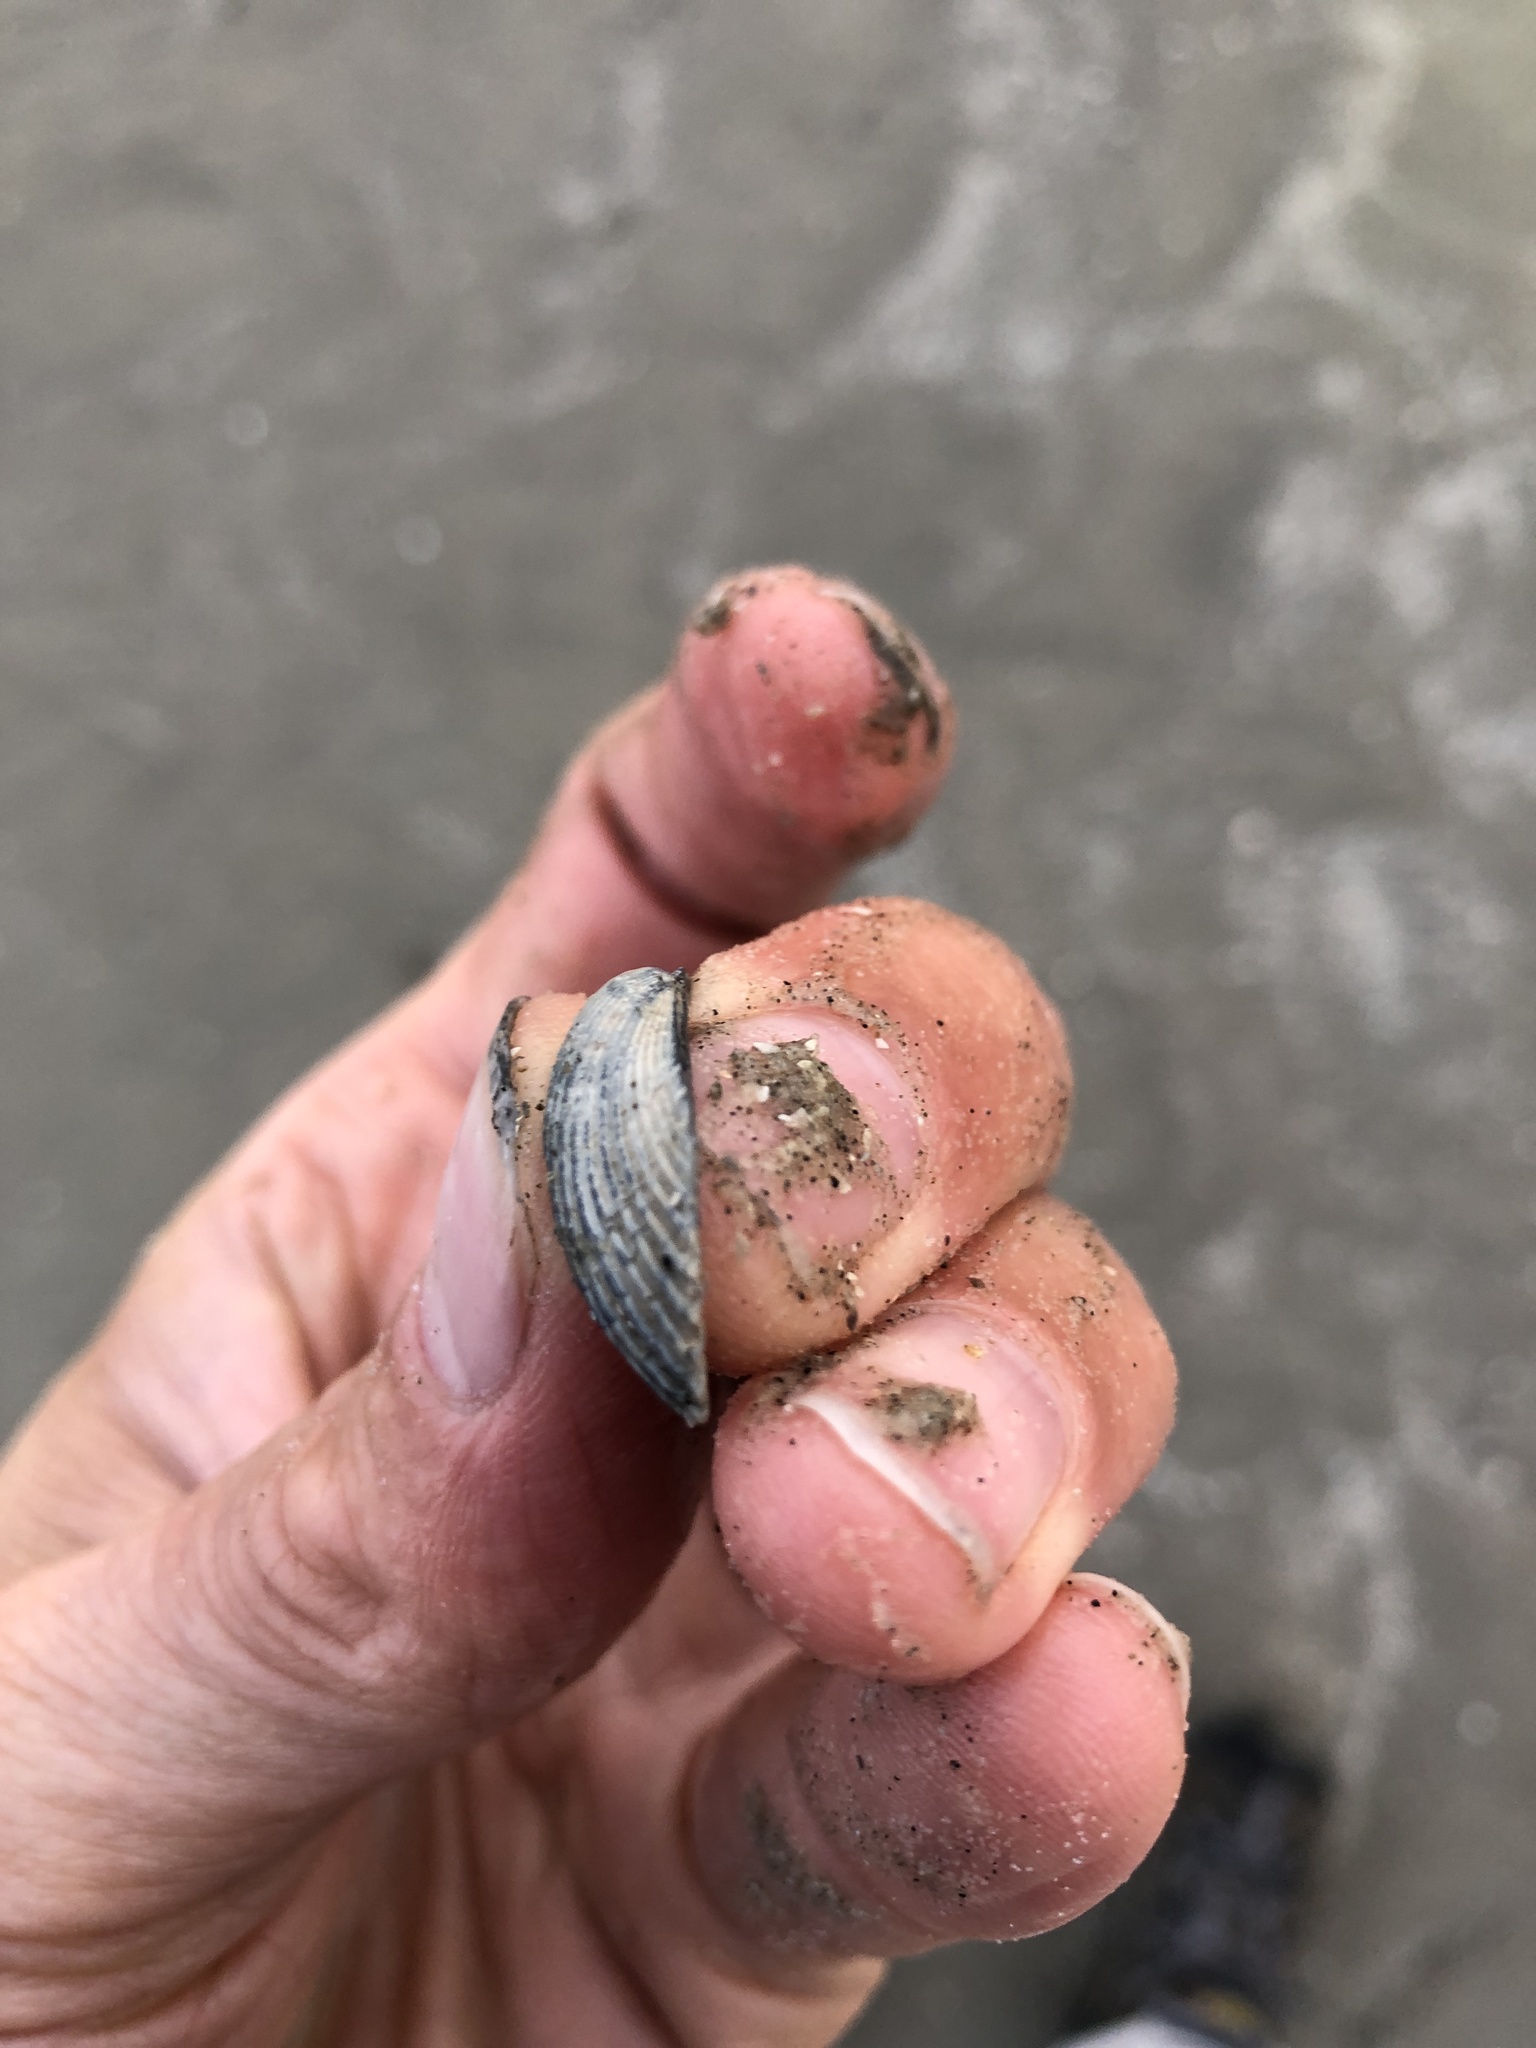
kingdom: Animalia
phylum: Mollusca
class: Bivalvia
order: Arcida
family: Arcidae
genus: Anadara
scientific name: Anadara transversa
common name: Transverse ark
